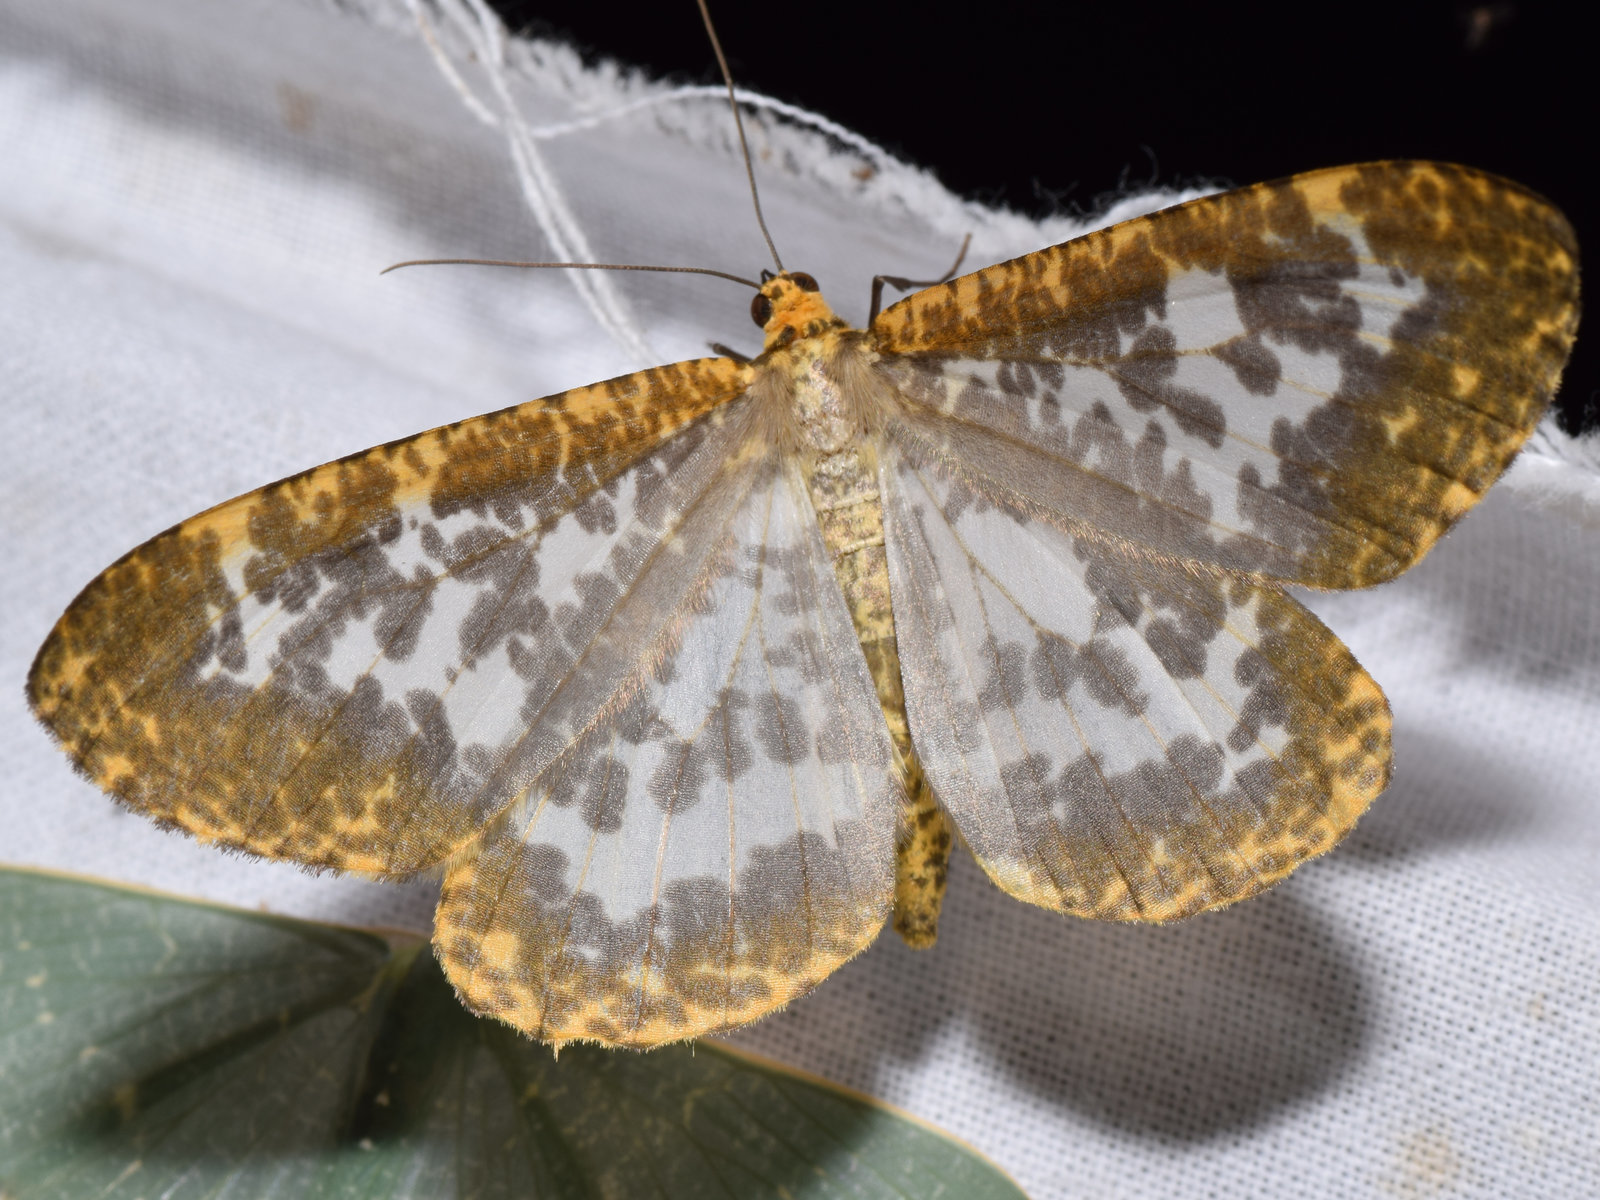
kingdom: Animalia
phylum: Arthropoda
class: Insecta
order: Lepidoptera
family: Geometridae
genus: Obeidia
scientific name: Obeidia Epobeidia lucifera
